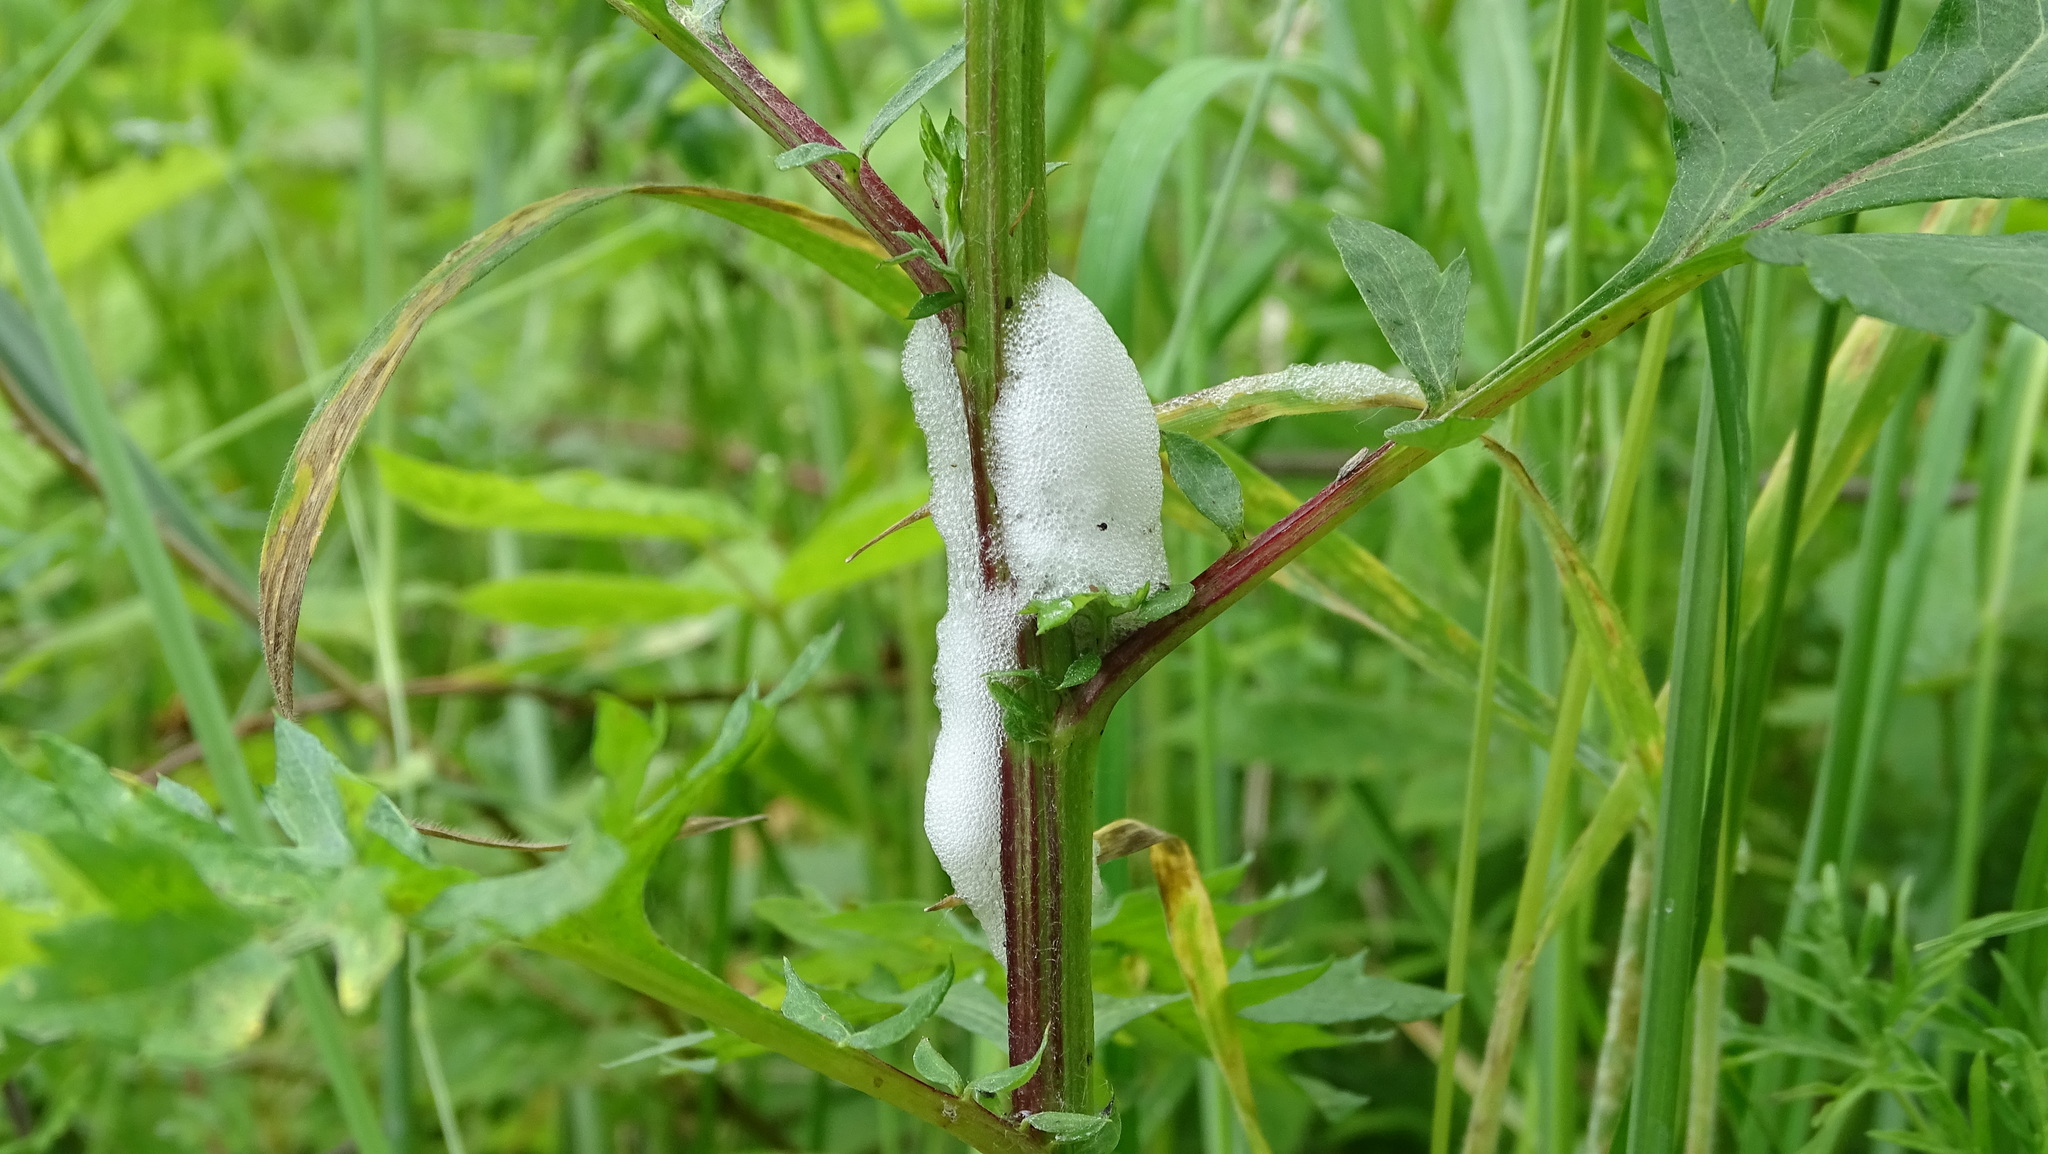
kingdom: Animalia
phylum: Arthropoda
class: Insecta
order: Hemiptera
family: Aphrophoridae
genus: Philaenus
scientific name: Philaenus spumarius
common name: Meadow spittlebug
